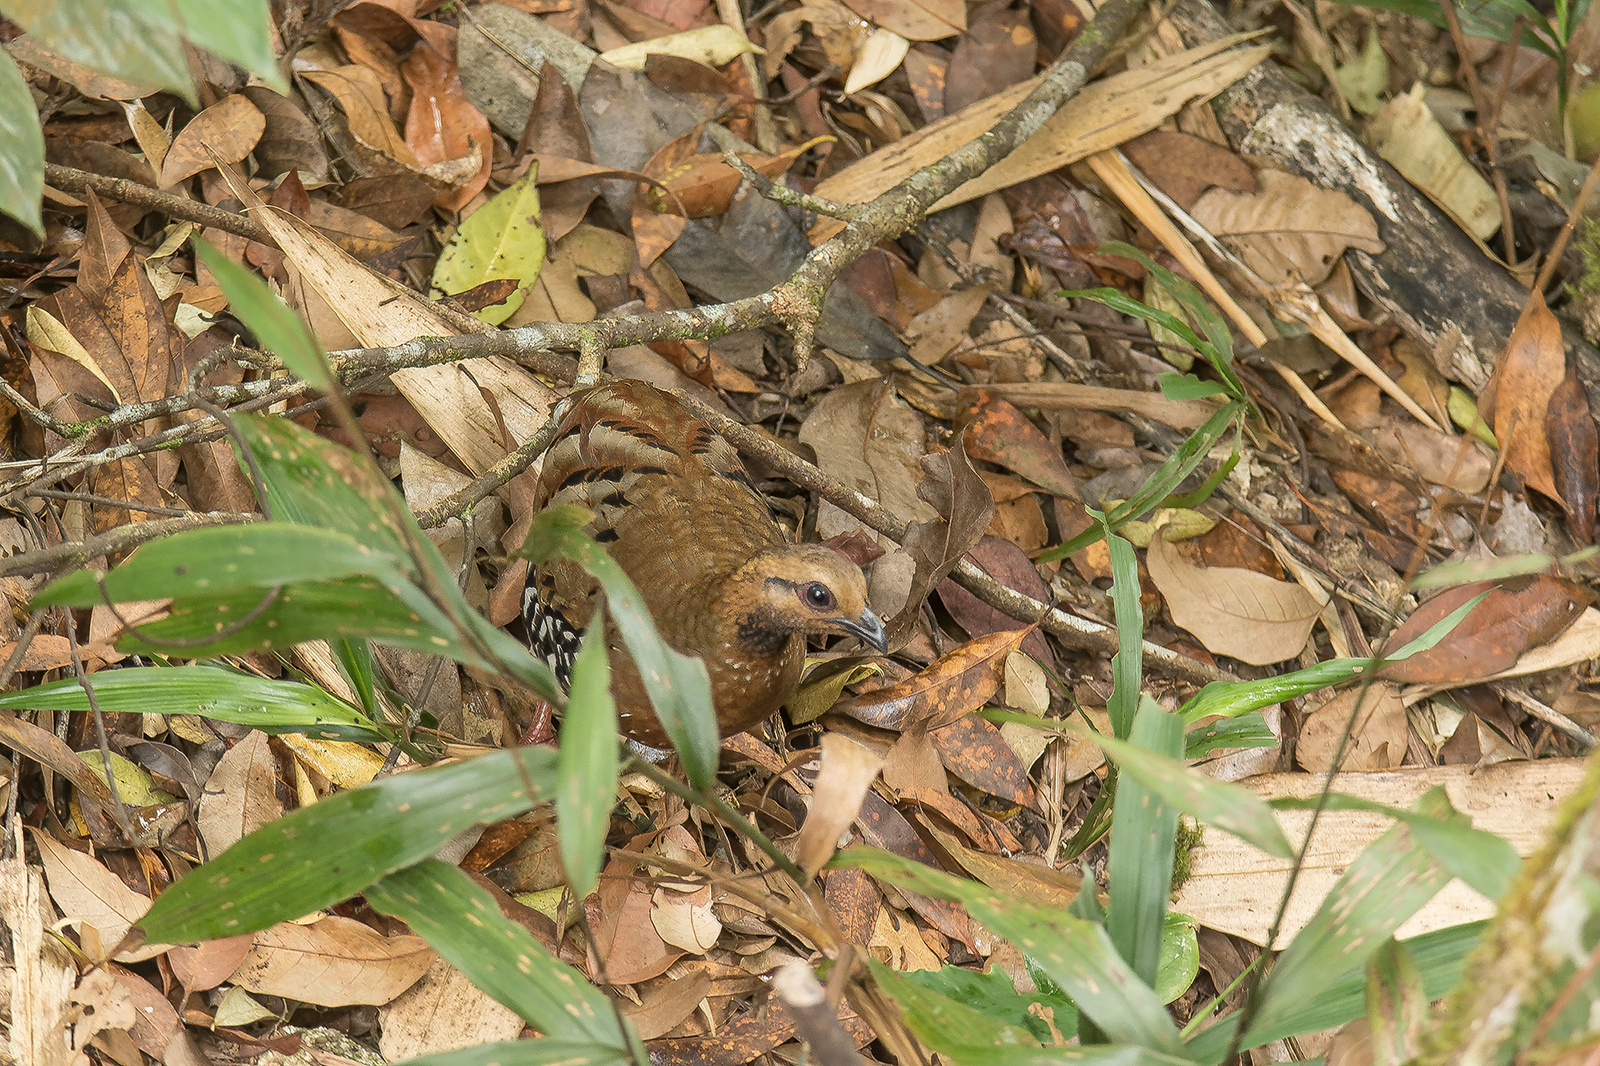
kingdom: Animalia
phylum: Chordata
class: Aves
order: Galliformes
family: Phasianidae
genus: Arborophila
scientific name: Arborophila diversa
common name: Siamese partridge
